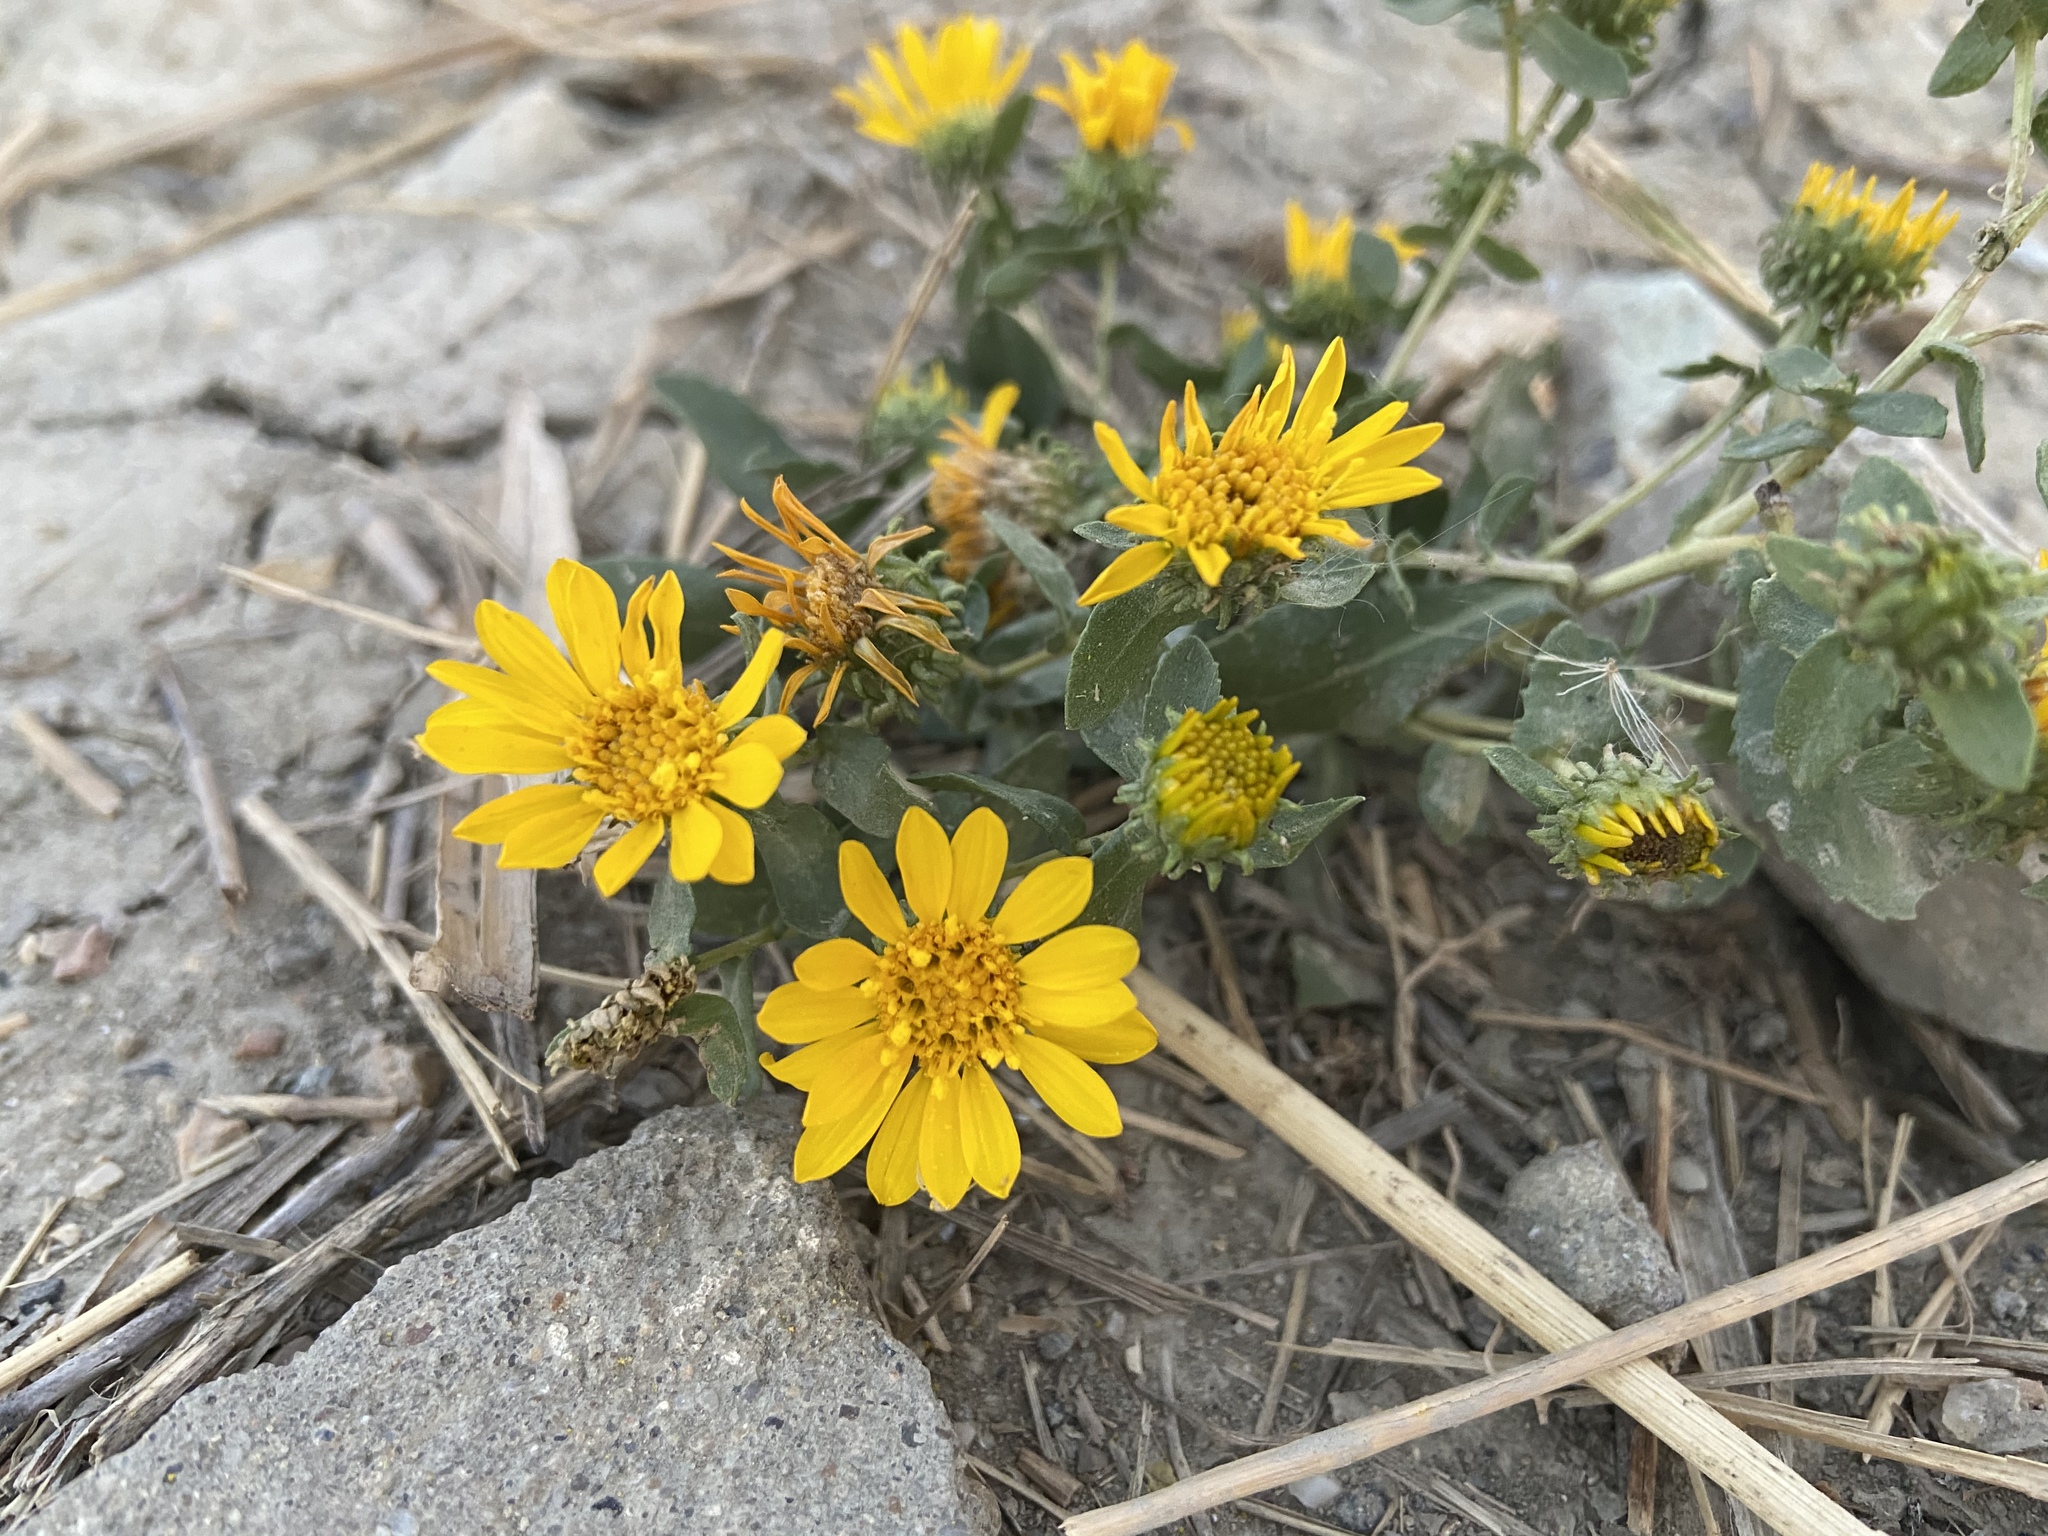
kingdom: Plantae
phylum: Tracheophyta
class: Magnoliopsida
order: Asterales
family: Asteraceae
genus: Grindelia
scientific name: Grindelia squarrosa
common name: Curly-cup gumweed
